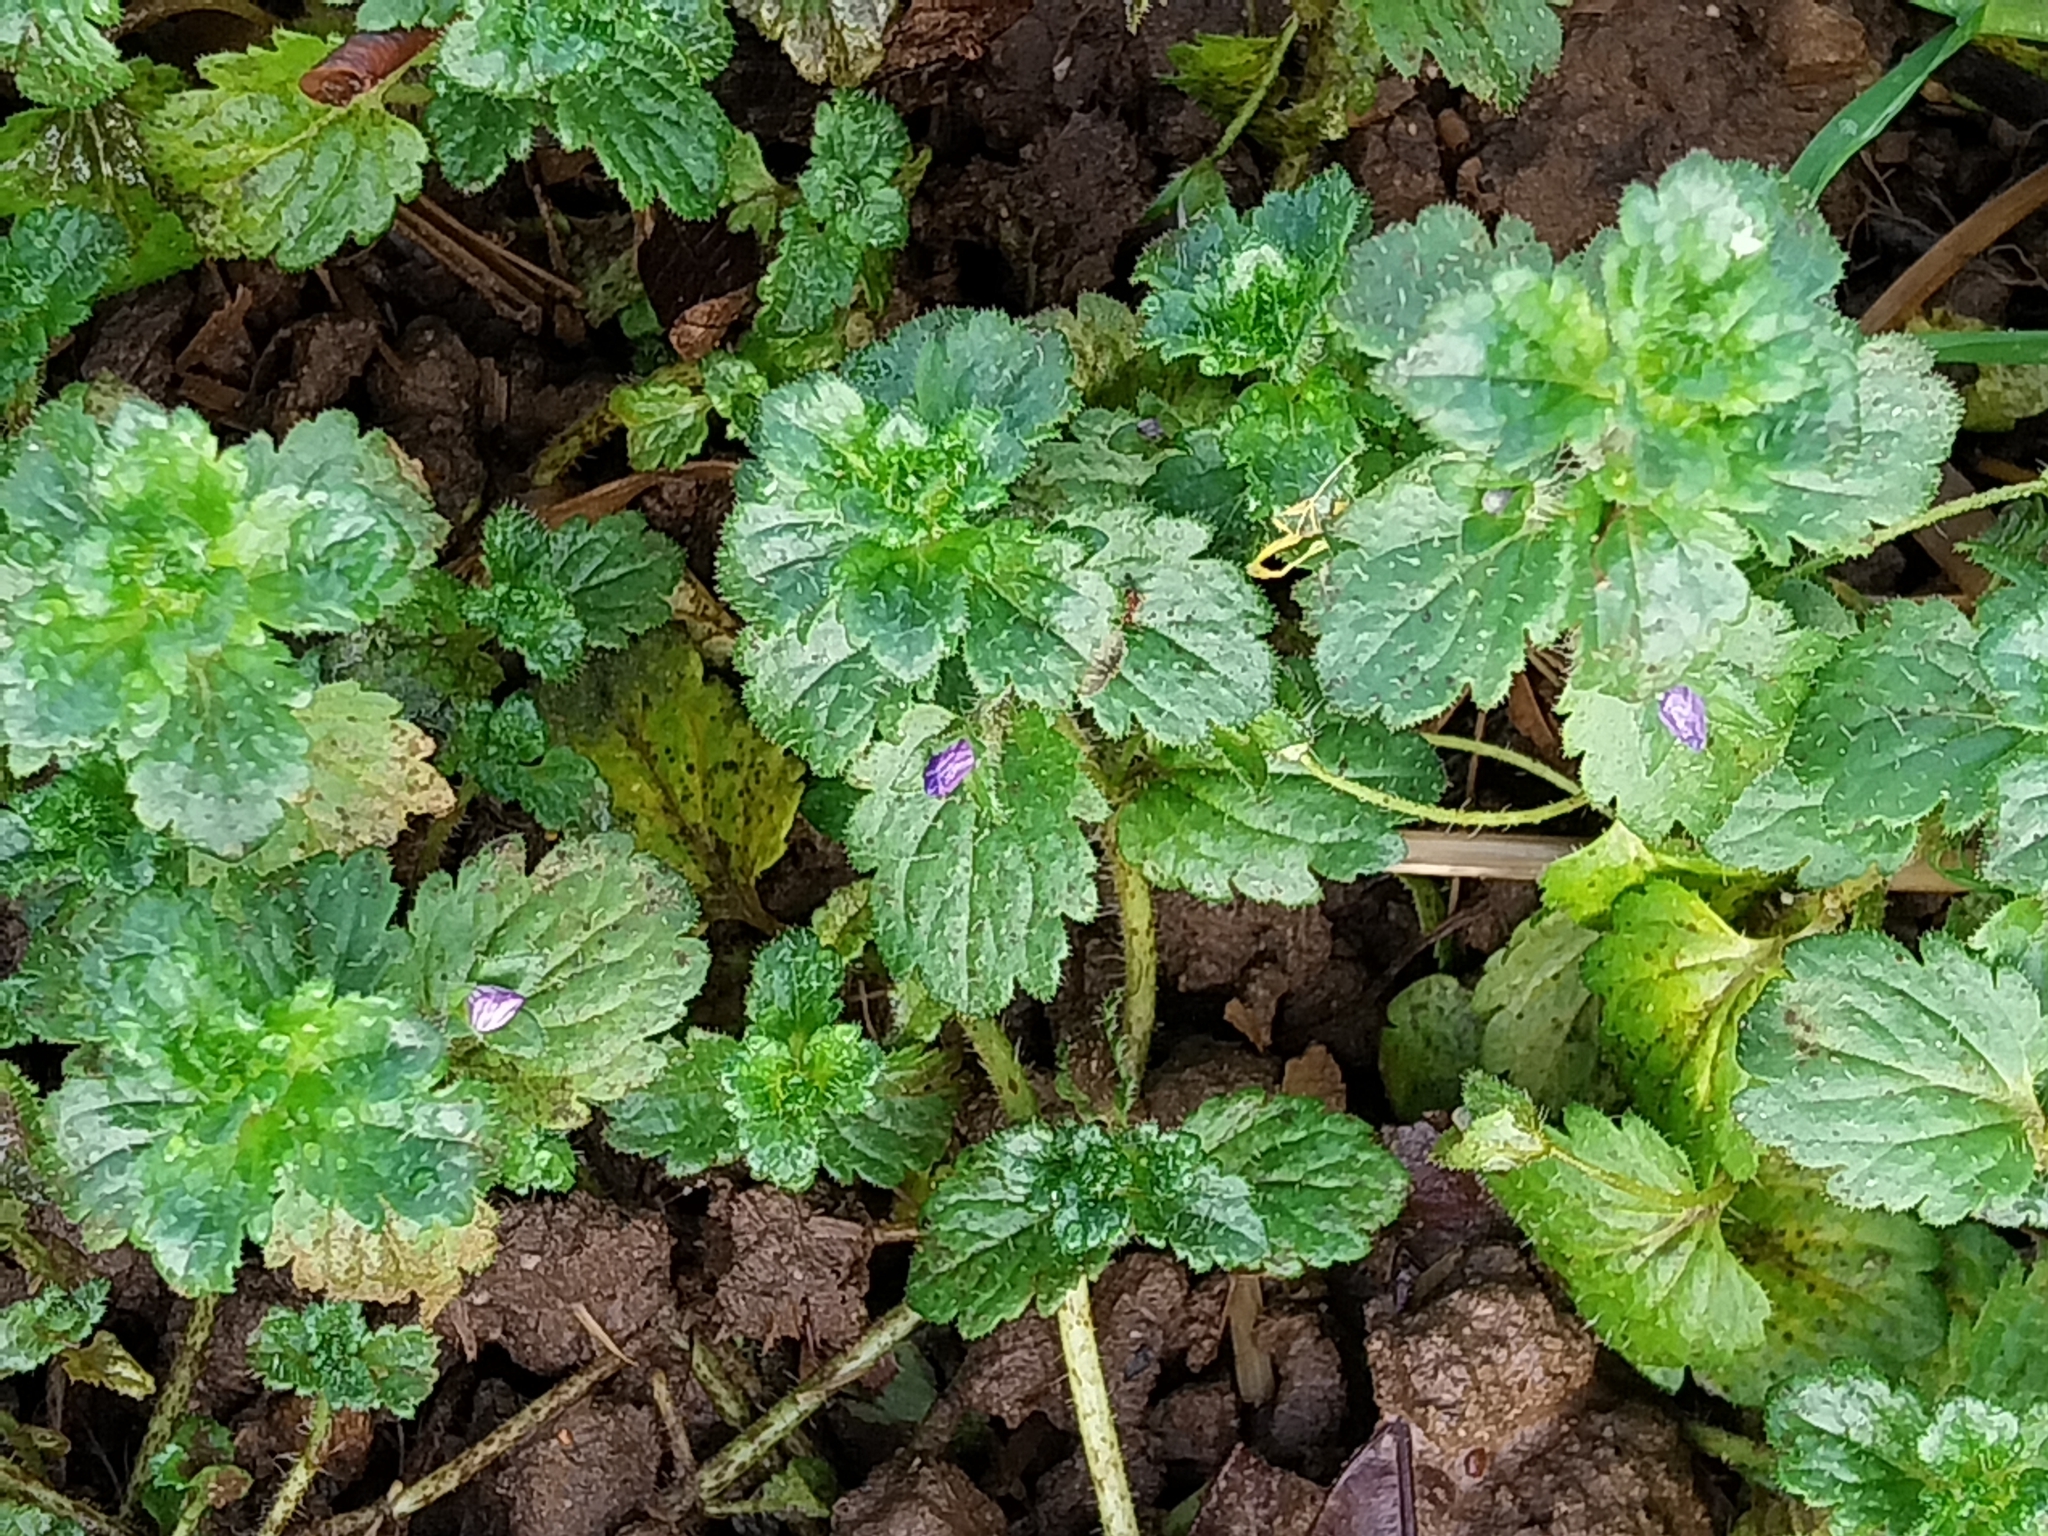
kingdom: Plantae
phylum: Tracheophyta
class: Magnoliopsida
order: Lamiales
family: Plantaginaceae
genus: Veronica
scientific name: Veronica persica
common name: Common field-speedwell
